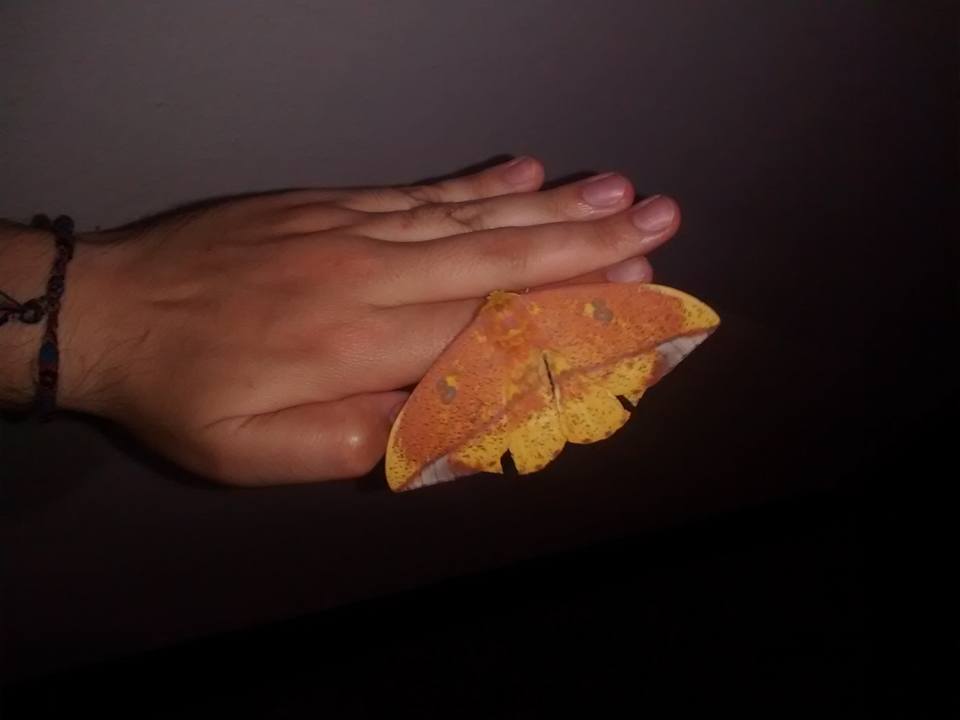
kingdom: Animalia
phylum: Arthropoda
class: Insecta
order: Lepidoptera
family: Saturniidae
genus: Eacles
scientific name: Eacles ormondei
